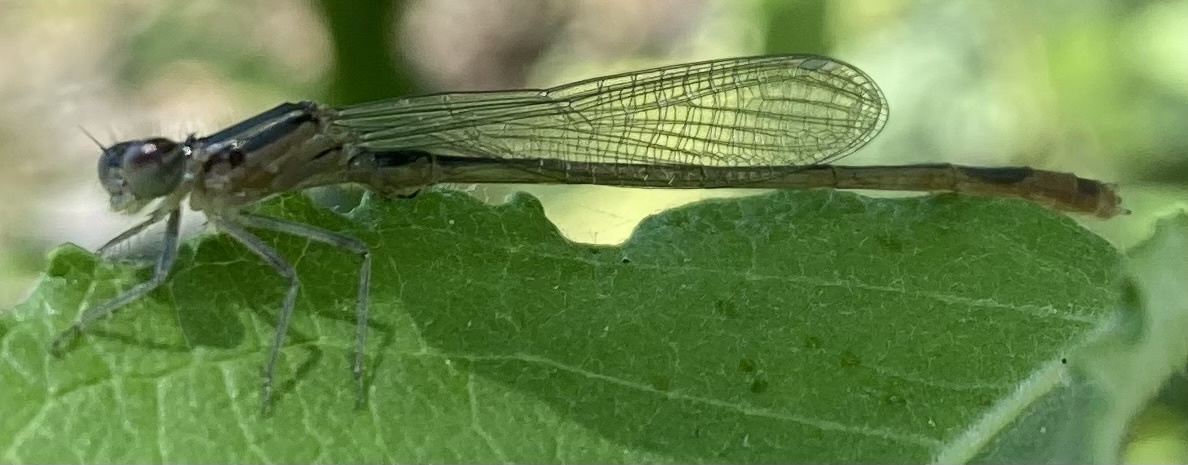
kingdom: Animalia
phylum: Arthropoda
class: Insecta
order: Odonata
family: Coenagrionidae
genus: Ischnura
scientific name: Ischnura elegans
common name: Blue-tailed damselfly
